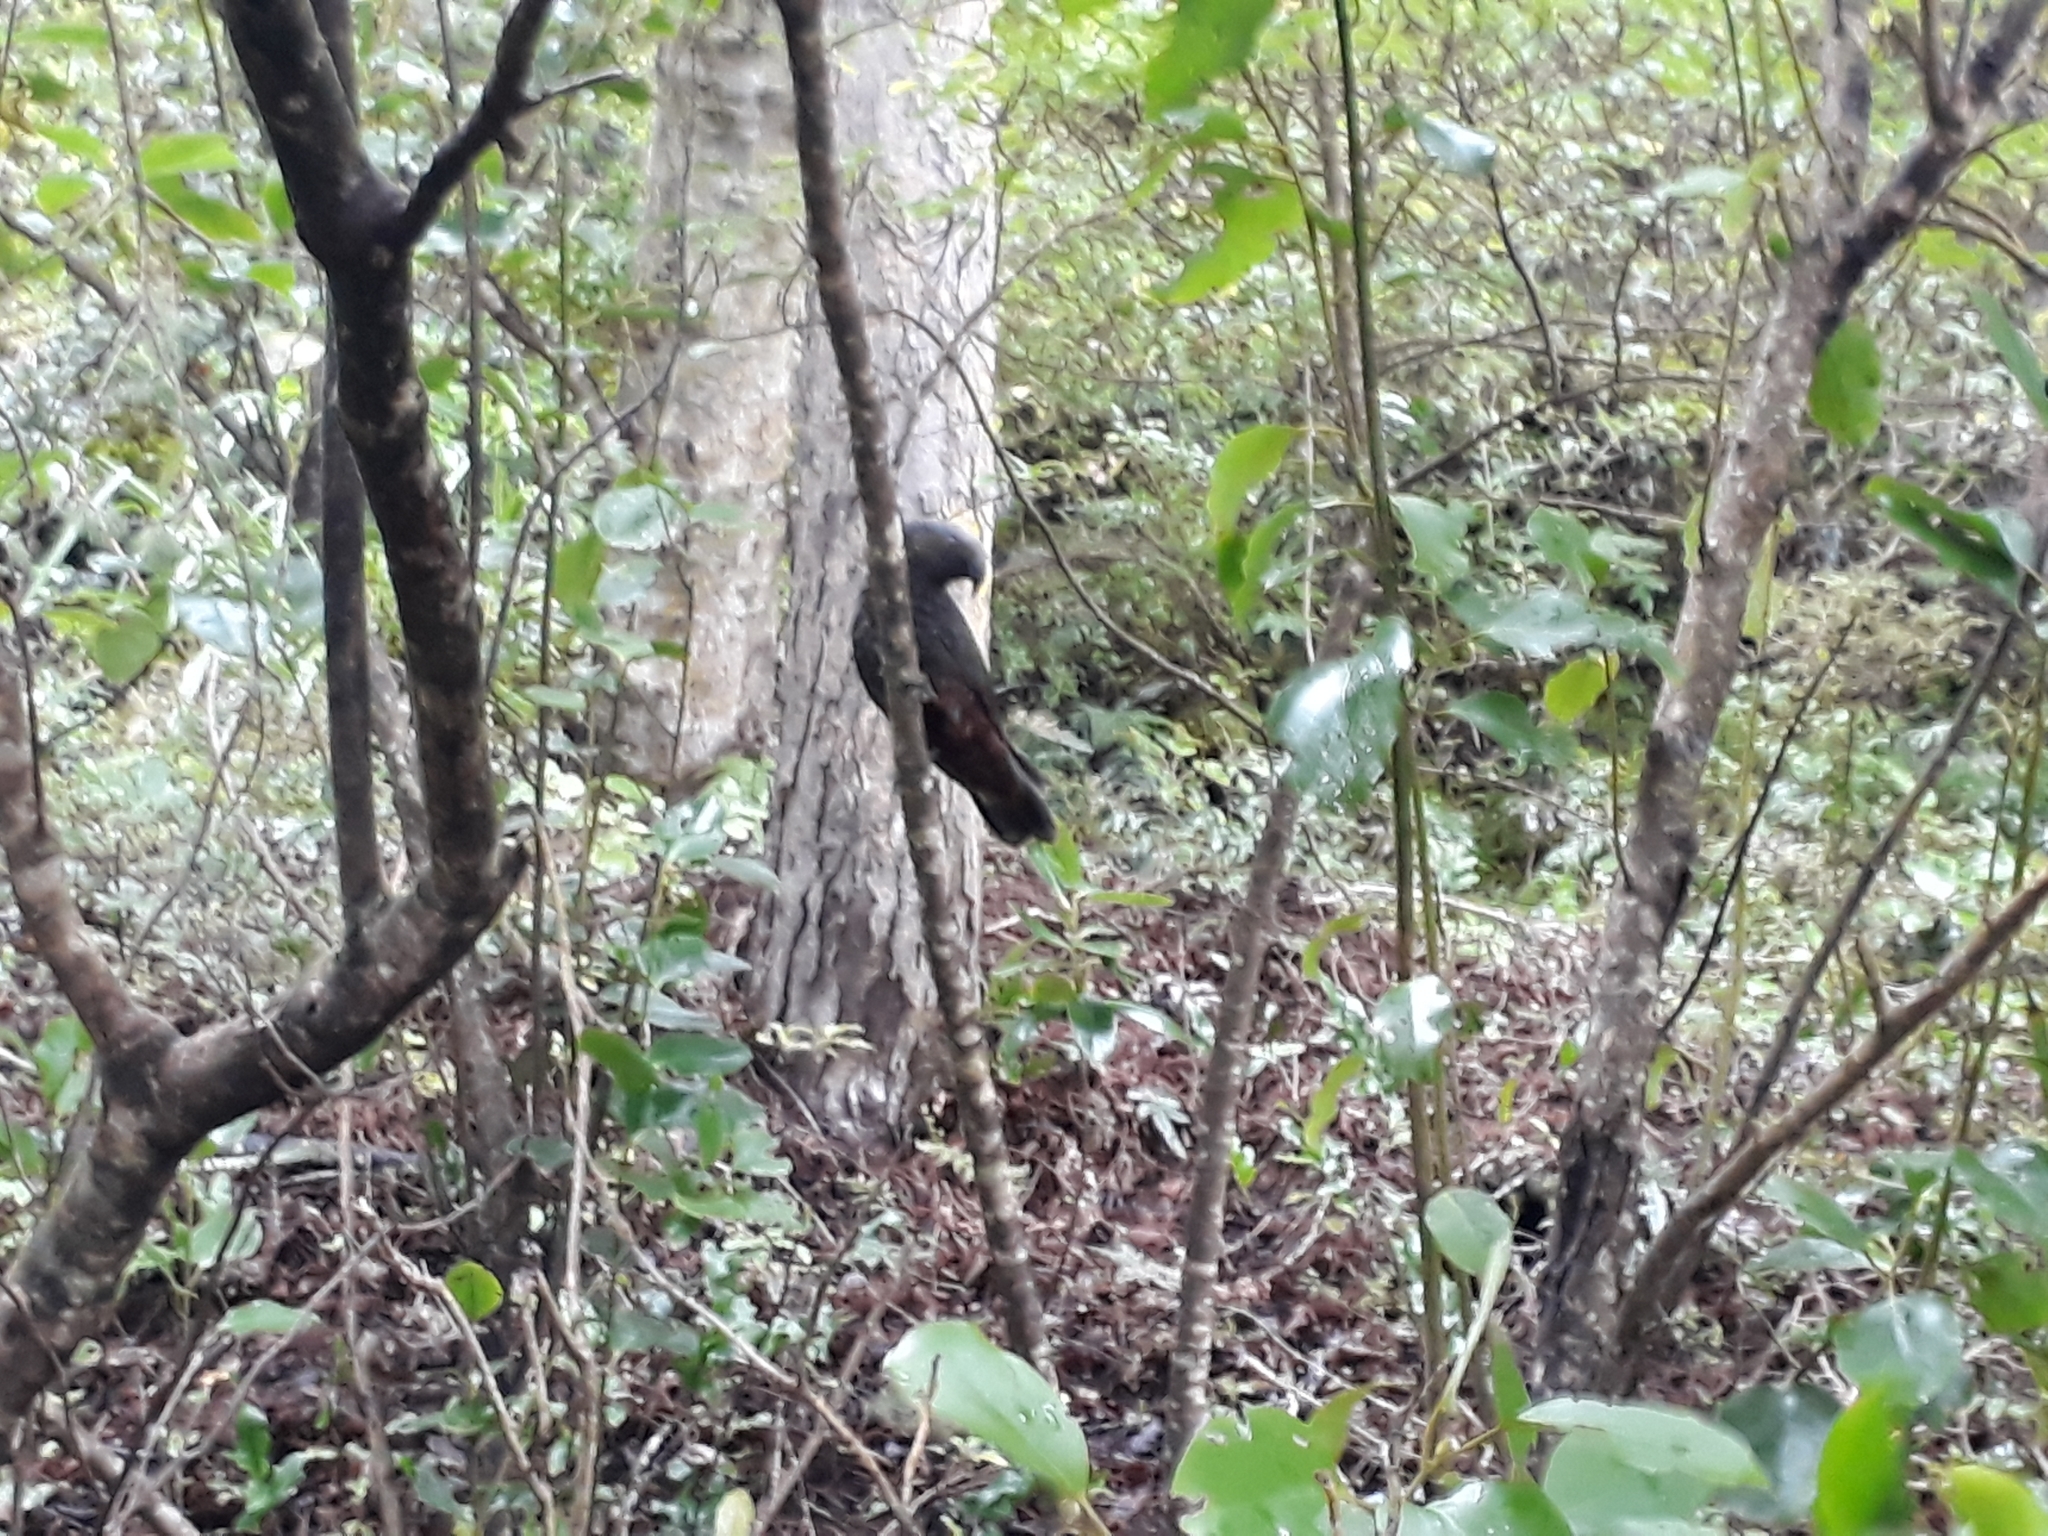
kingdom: Animalia
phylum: Chordata
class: Aves
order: Psittaciformes
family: Psittacidae
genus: Nestor
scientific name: Nestor meridionalis
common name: New zealand kaka
